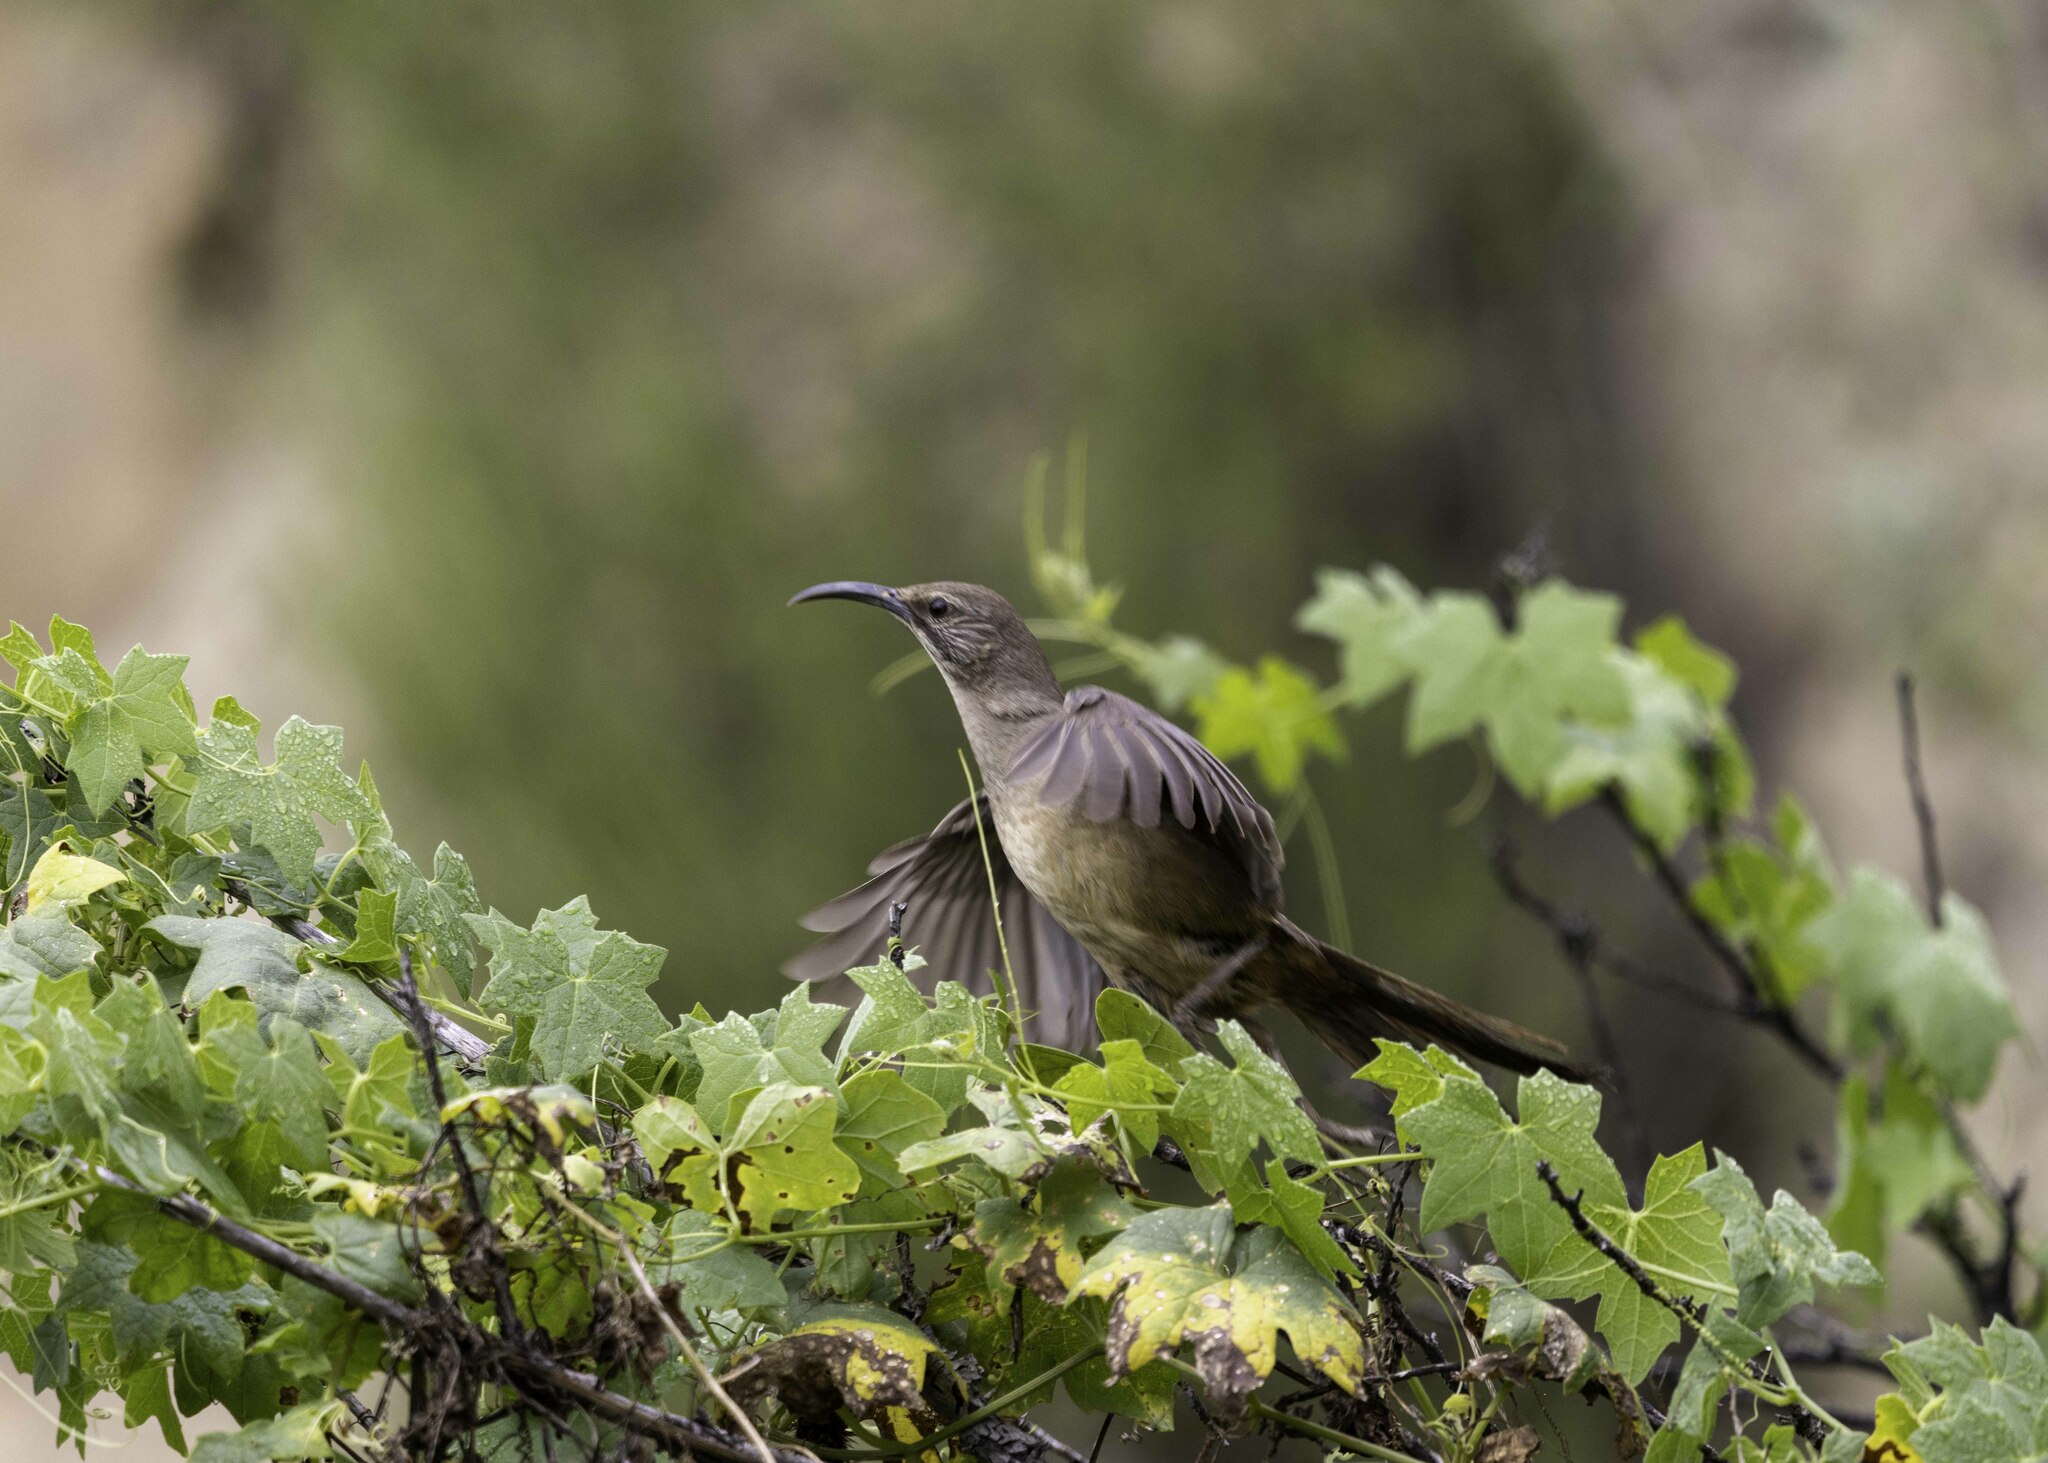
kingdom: Animalia
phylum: Chordata
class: Aves
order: Passeriformes
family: Mimidae
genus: Toxostoma
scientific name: Toxostoma redivivum
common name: California thrasher
